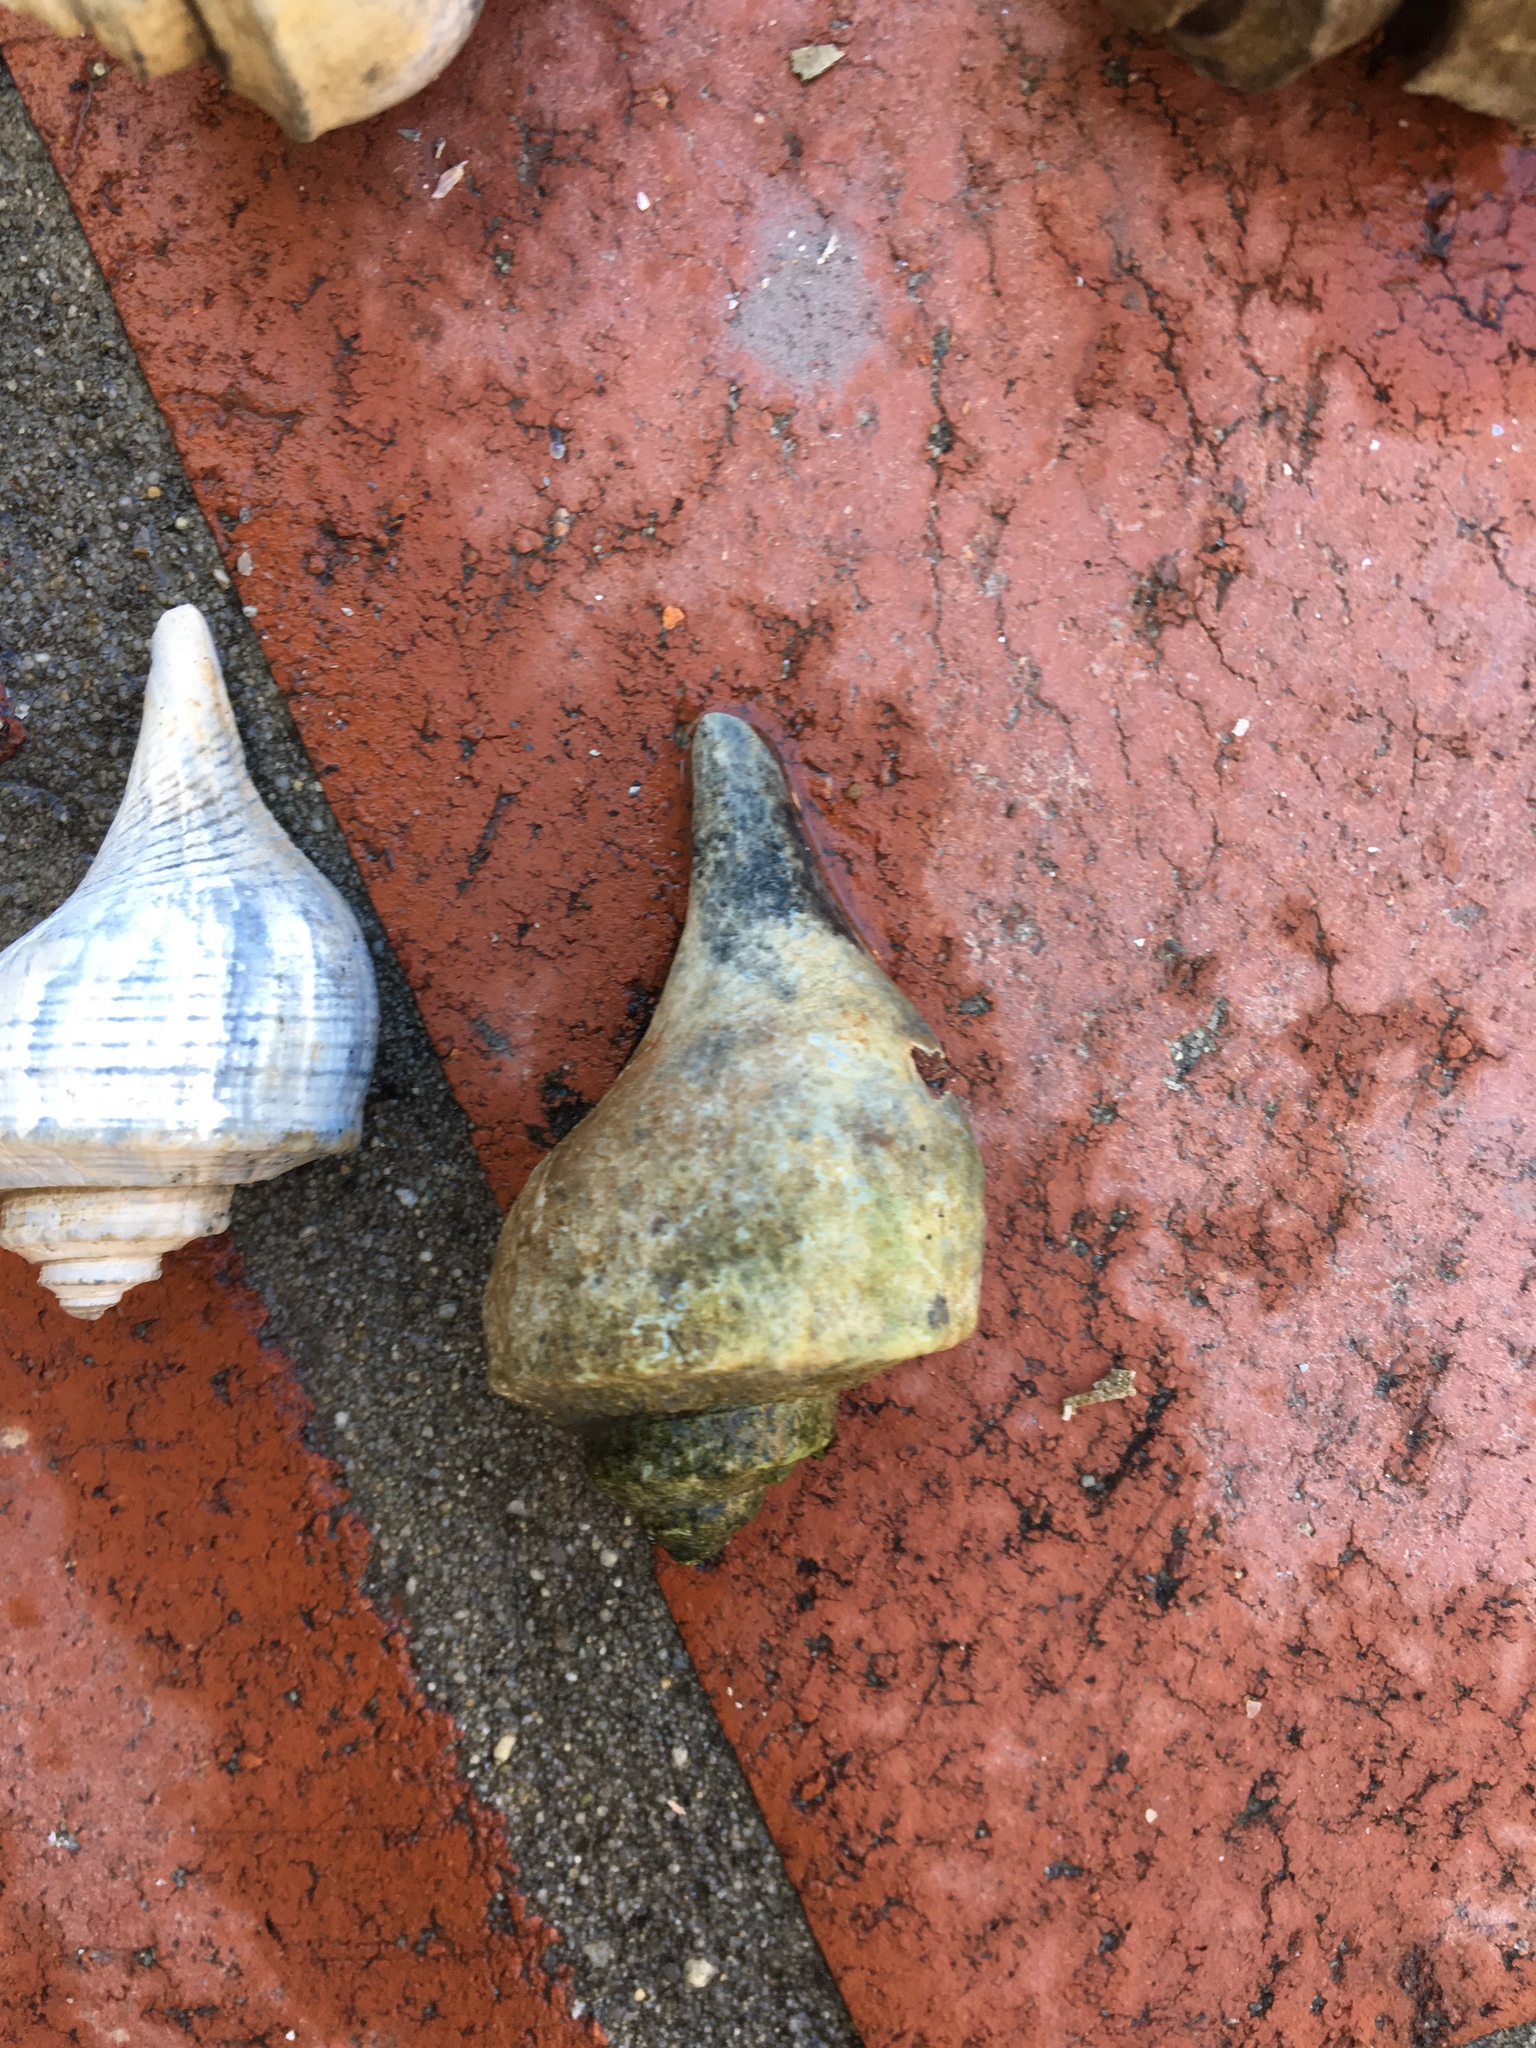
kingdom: Animalia
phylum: Mollusca
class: Gastropoda
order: Neogastropoda
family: Busyconidae
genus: Busycotypus
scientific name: Busycotypus canaliculatus
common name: Channeled whelk
